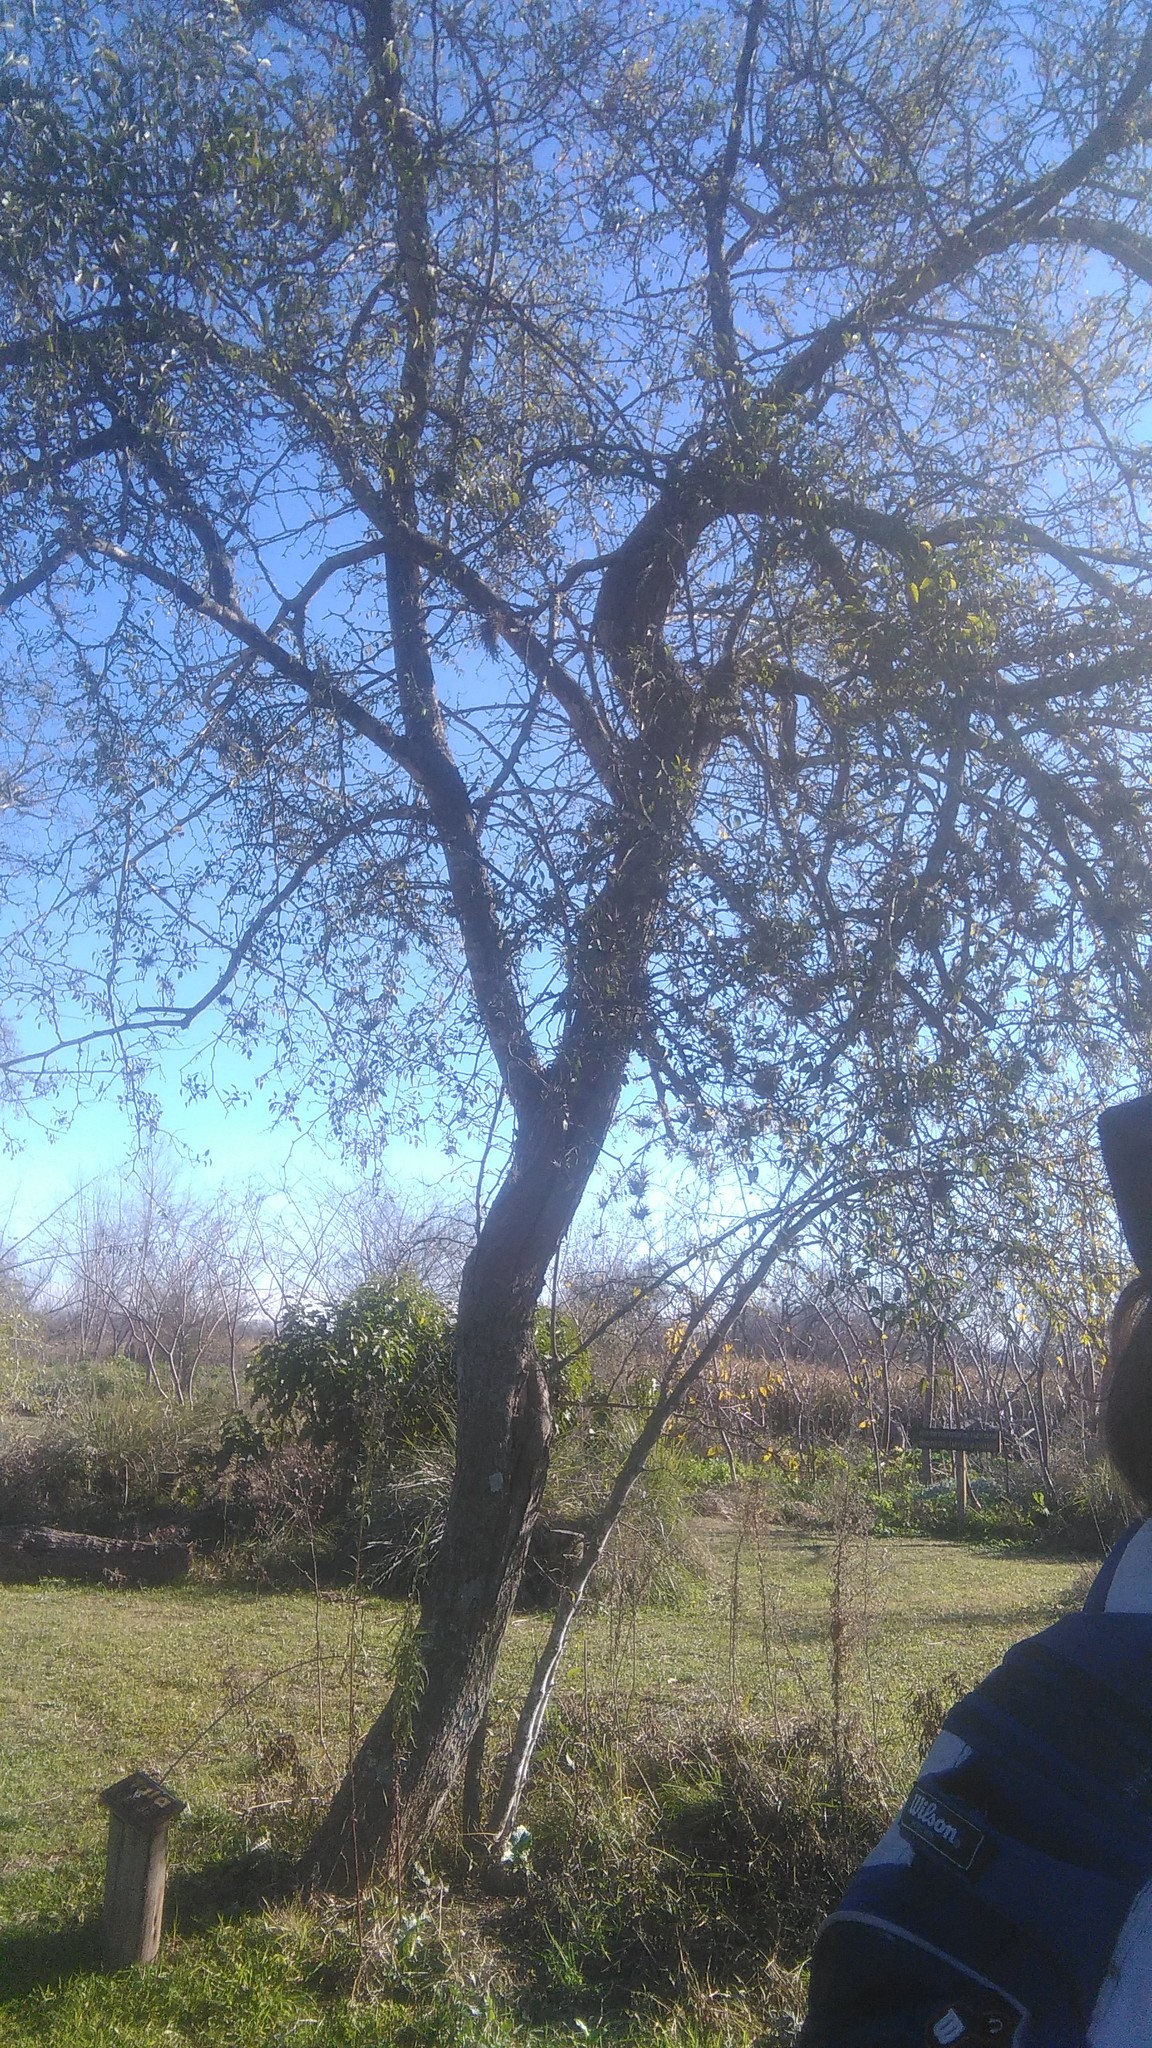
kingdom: Plantae
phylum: Tracheophyta
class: Magnoliopsida
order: Rosales
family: Cannabaceae
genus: Celtis
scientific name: Celtis tala
